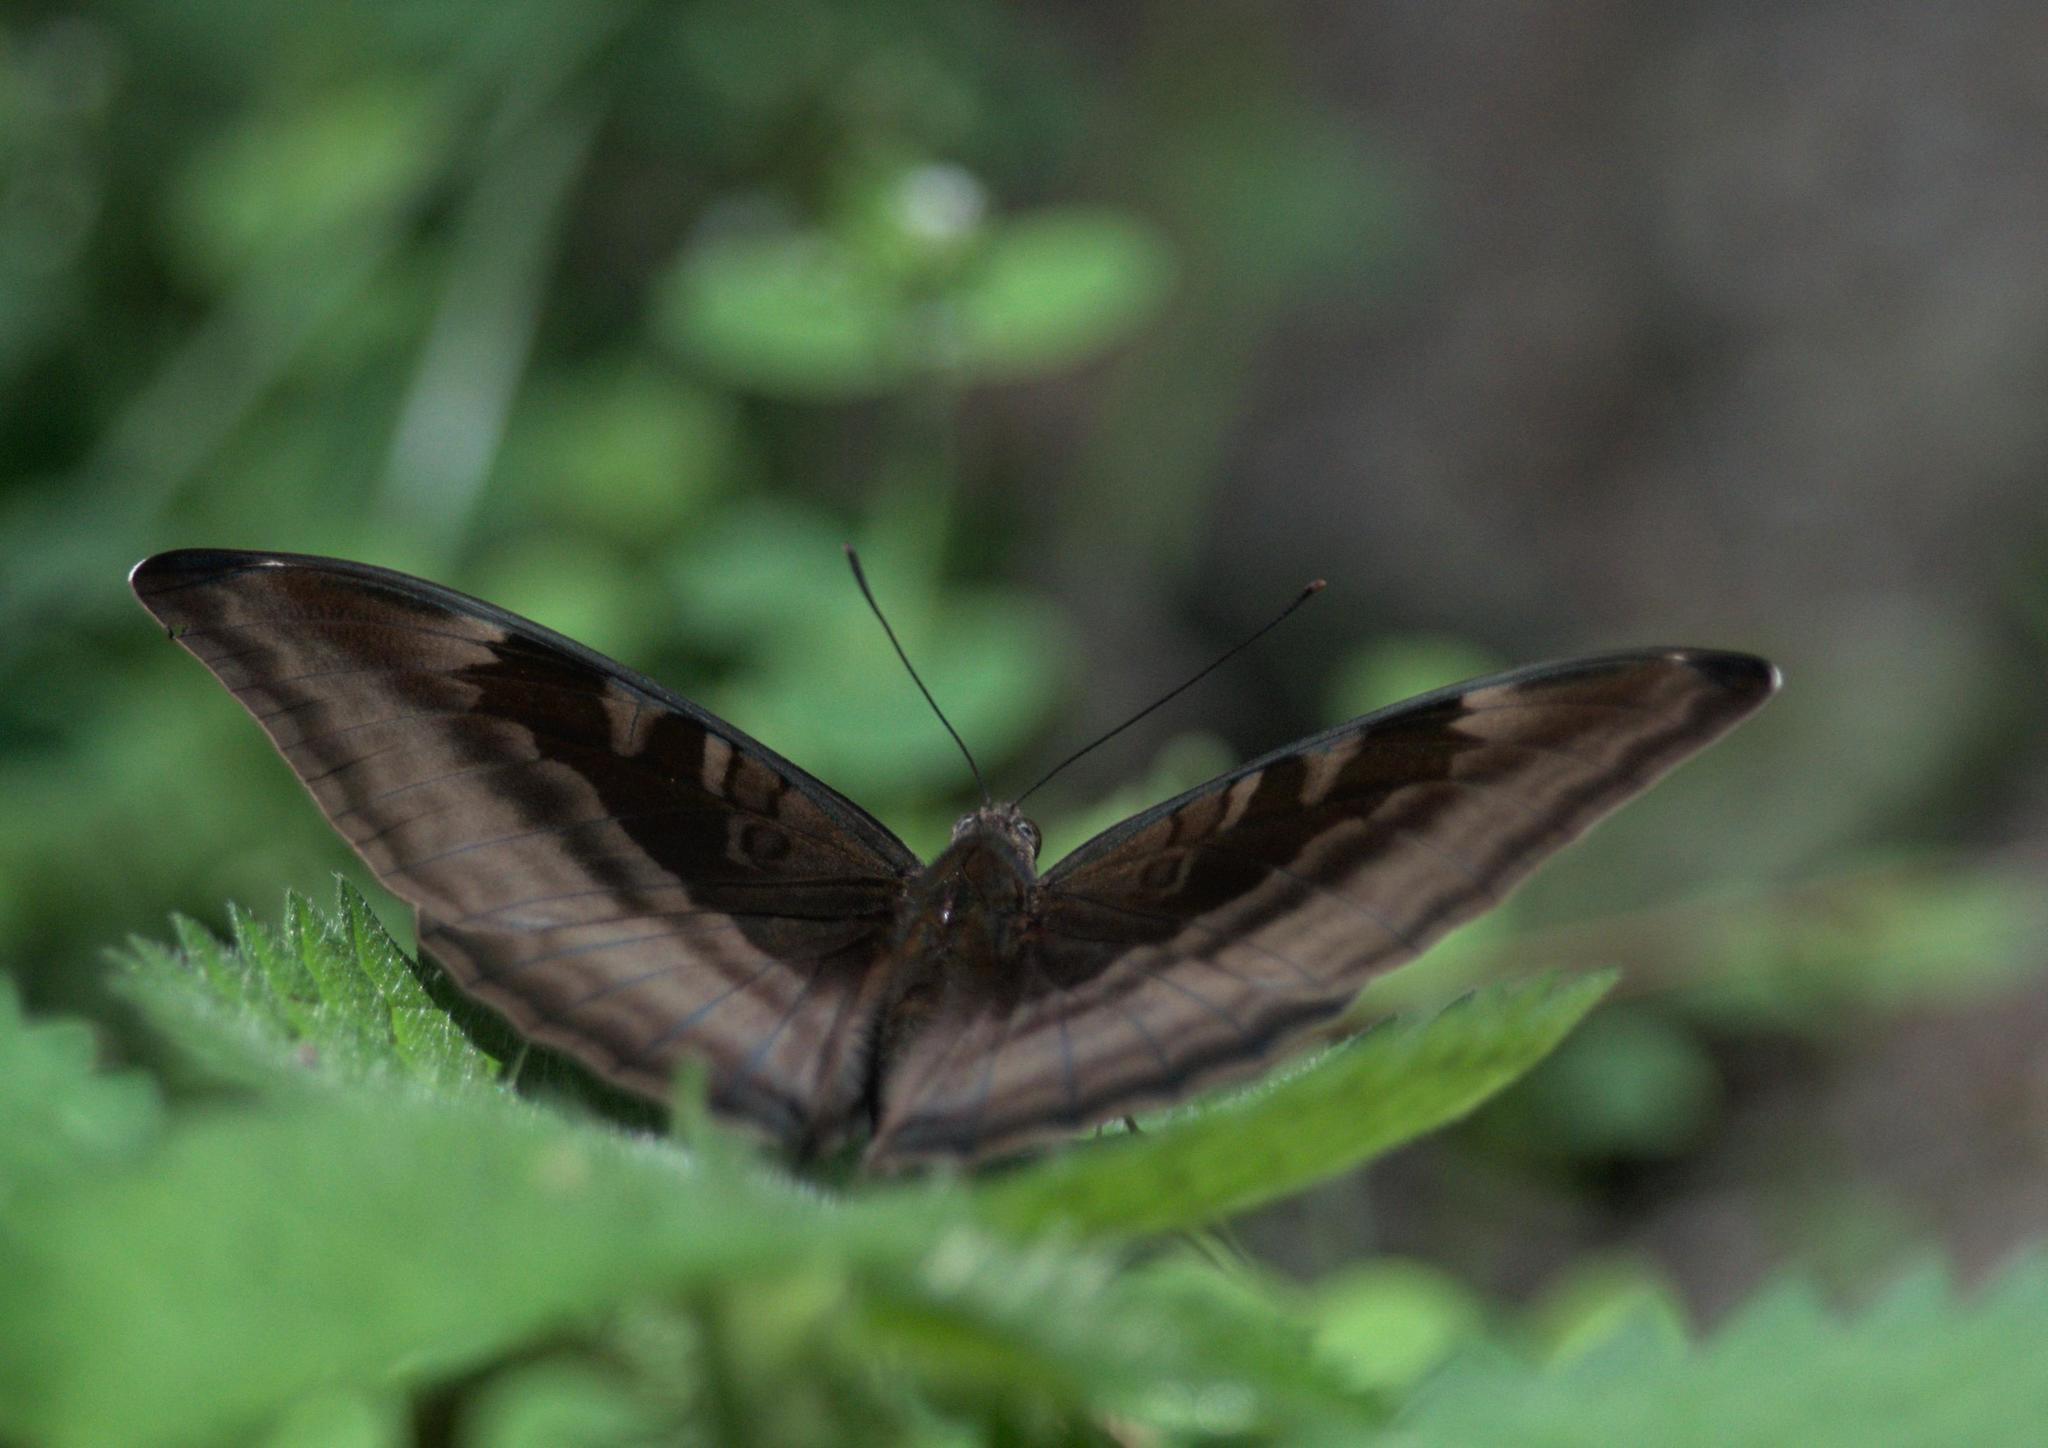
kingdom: Animalia
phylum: Arthropoda
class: Insecta
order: Lepidoptera
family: Nymphalidae
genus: Limenitis
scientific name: Limenitis Auzakia danava
